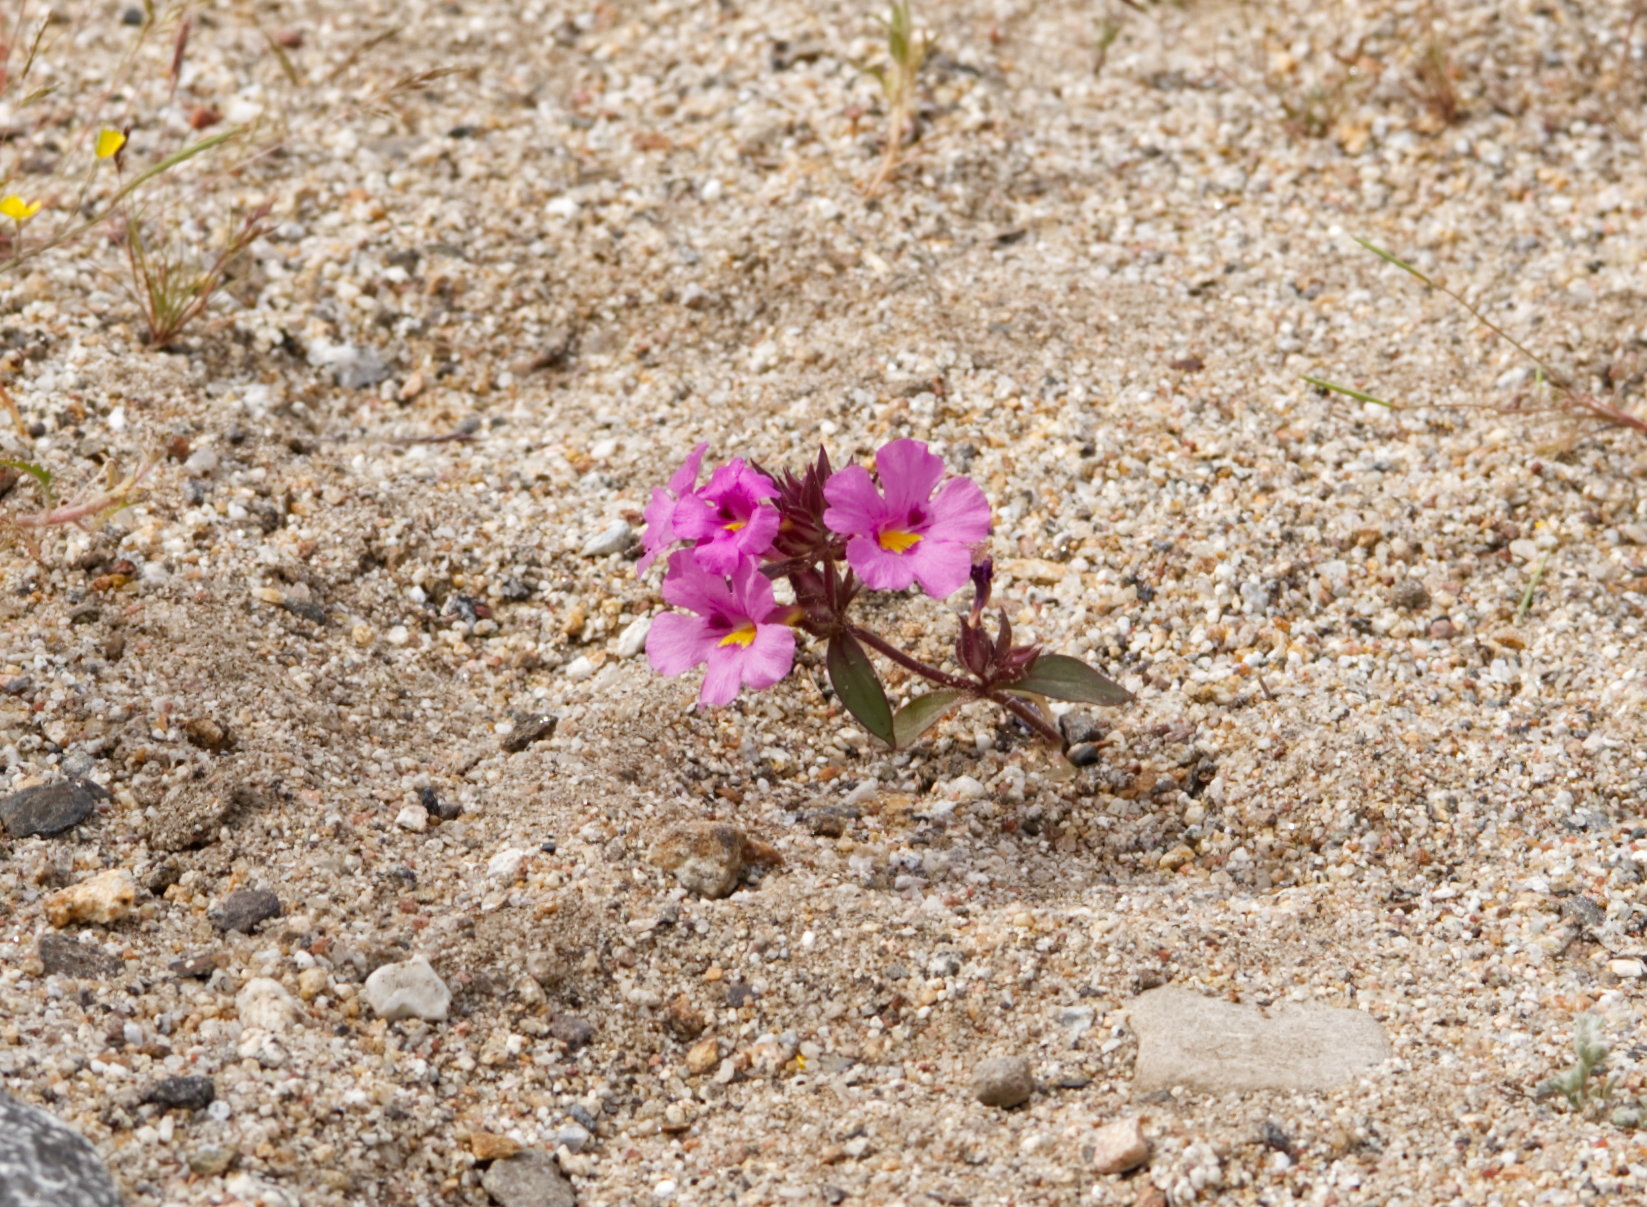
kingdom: Plantae
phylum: Tracheophyta
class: Magnoliopsida
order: Lamiales
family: Phrymaceae
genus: Diplacus
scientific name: Diplacus bigelovii
